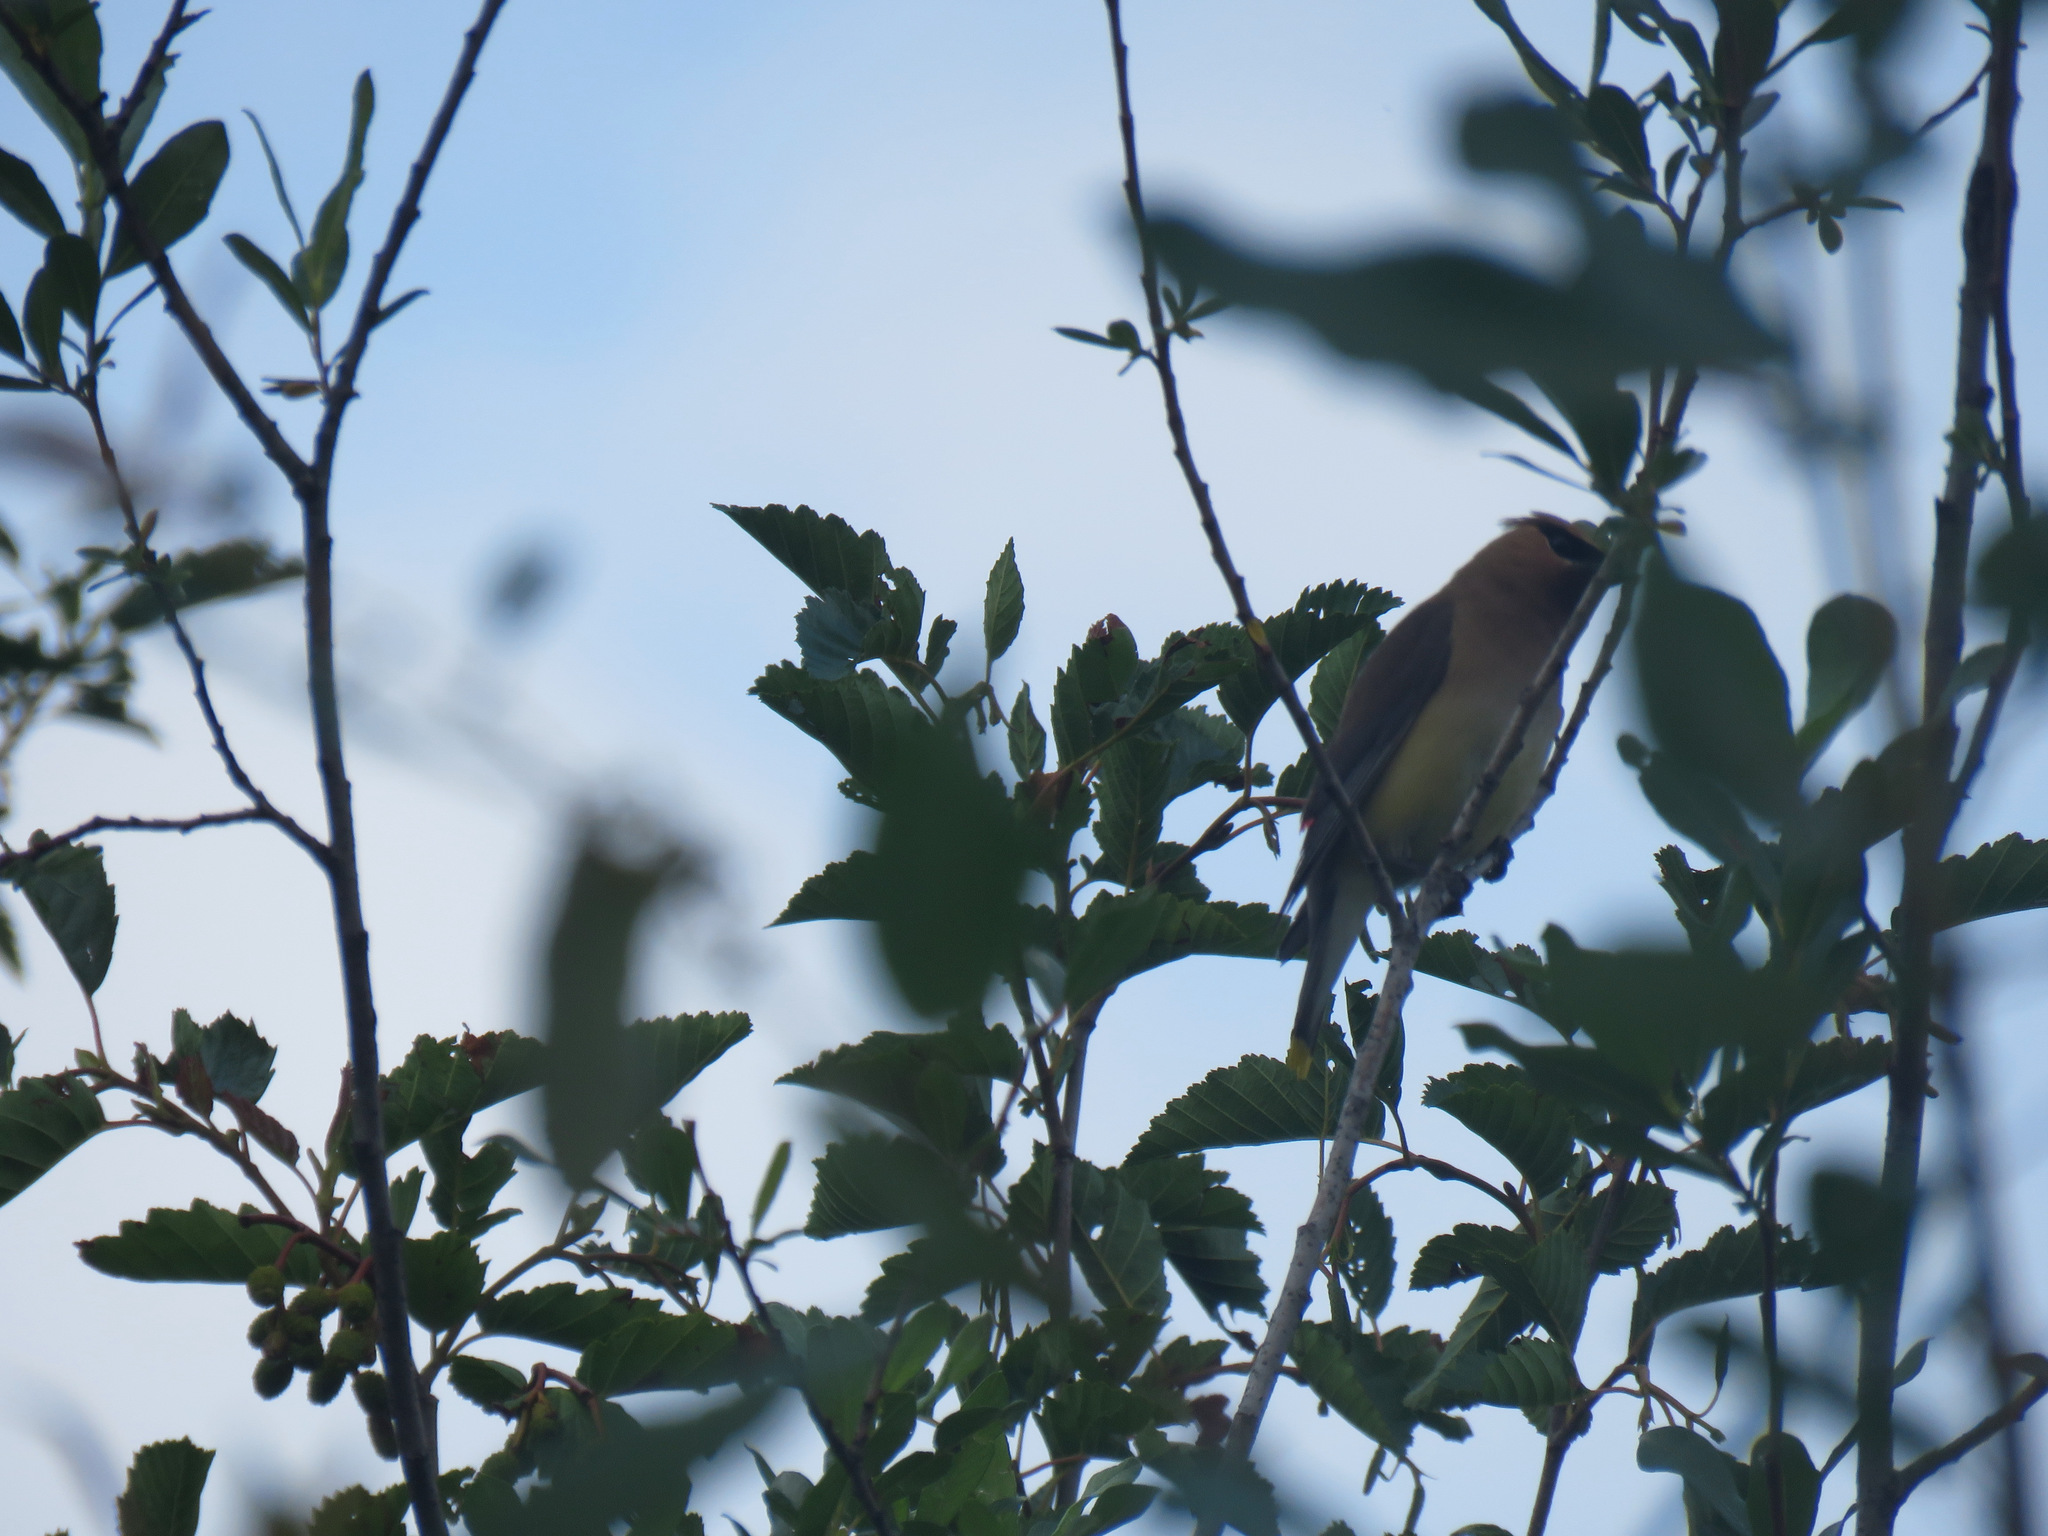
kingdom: Animalia
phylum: Chordata
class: Aves
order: Passeriformes
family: Bombycillidae
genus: Bombycilla
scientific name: Bombycilla cedrorum
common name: Cedar waxwing
